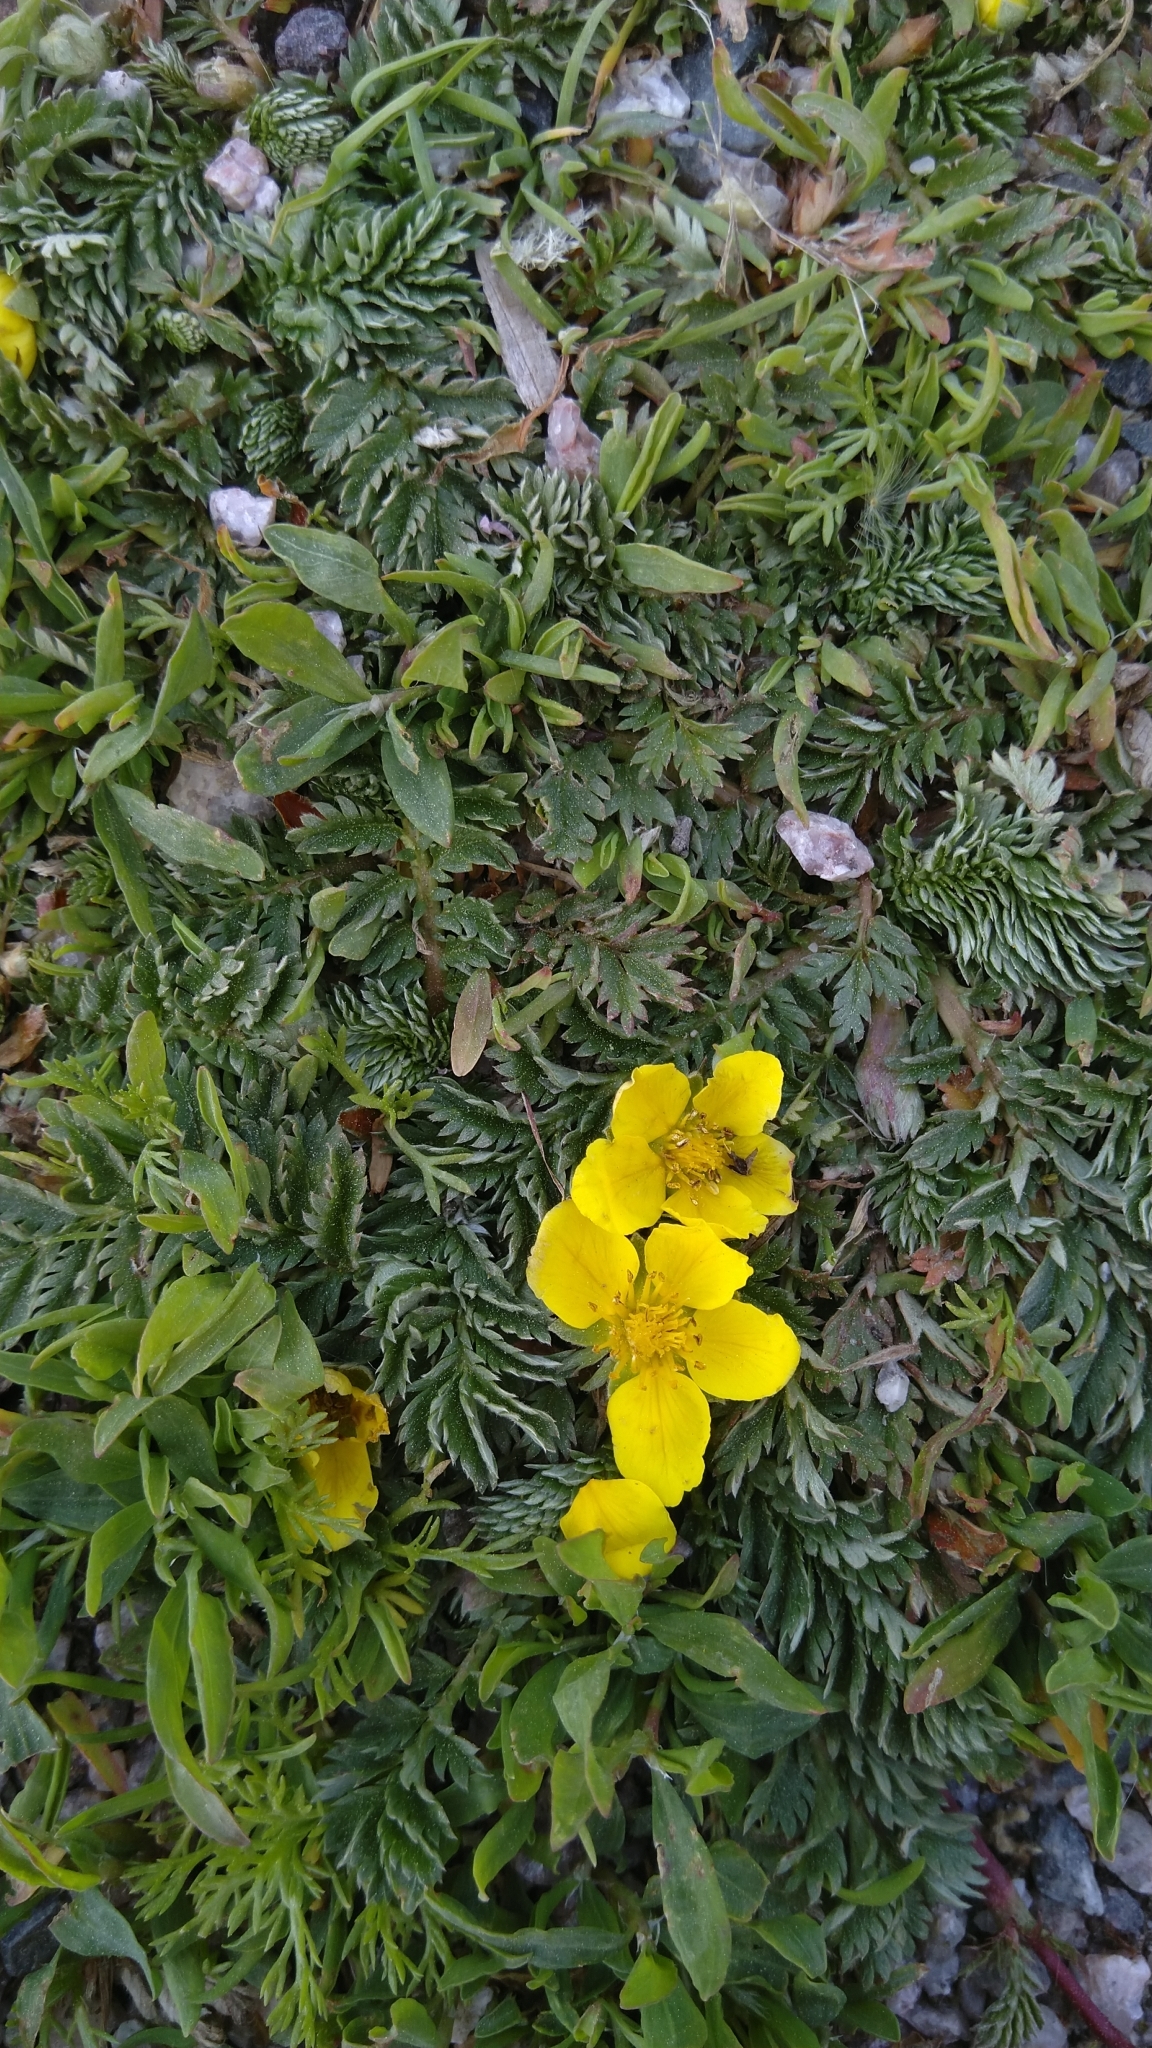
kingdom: Plantae
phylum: Tracheophyta
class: Magnoliopsida
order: Rosales
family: Rosaceae
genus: Argentina
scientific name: Argentina anserina
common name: Common silverweed
